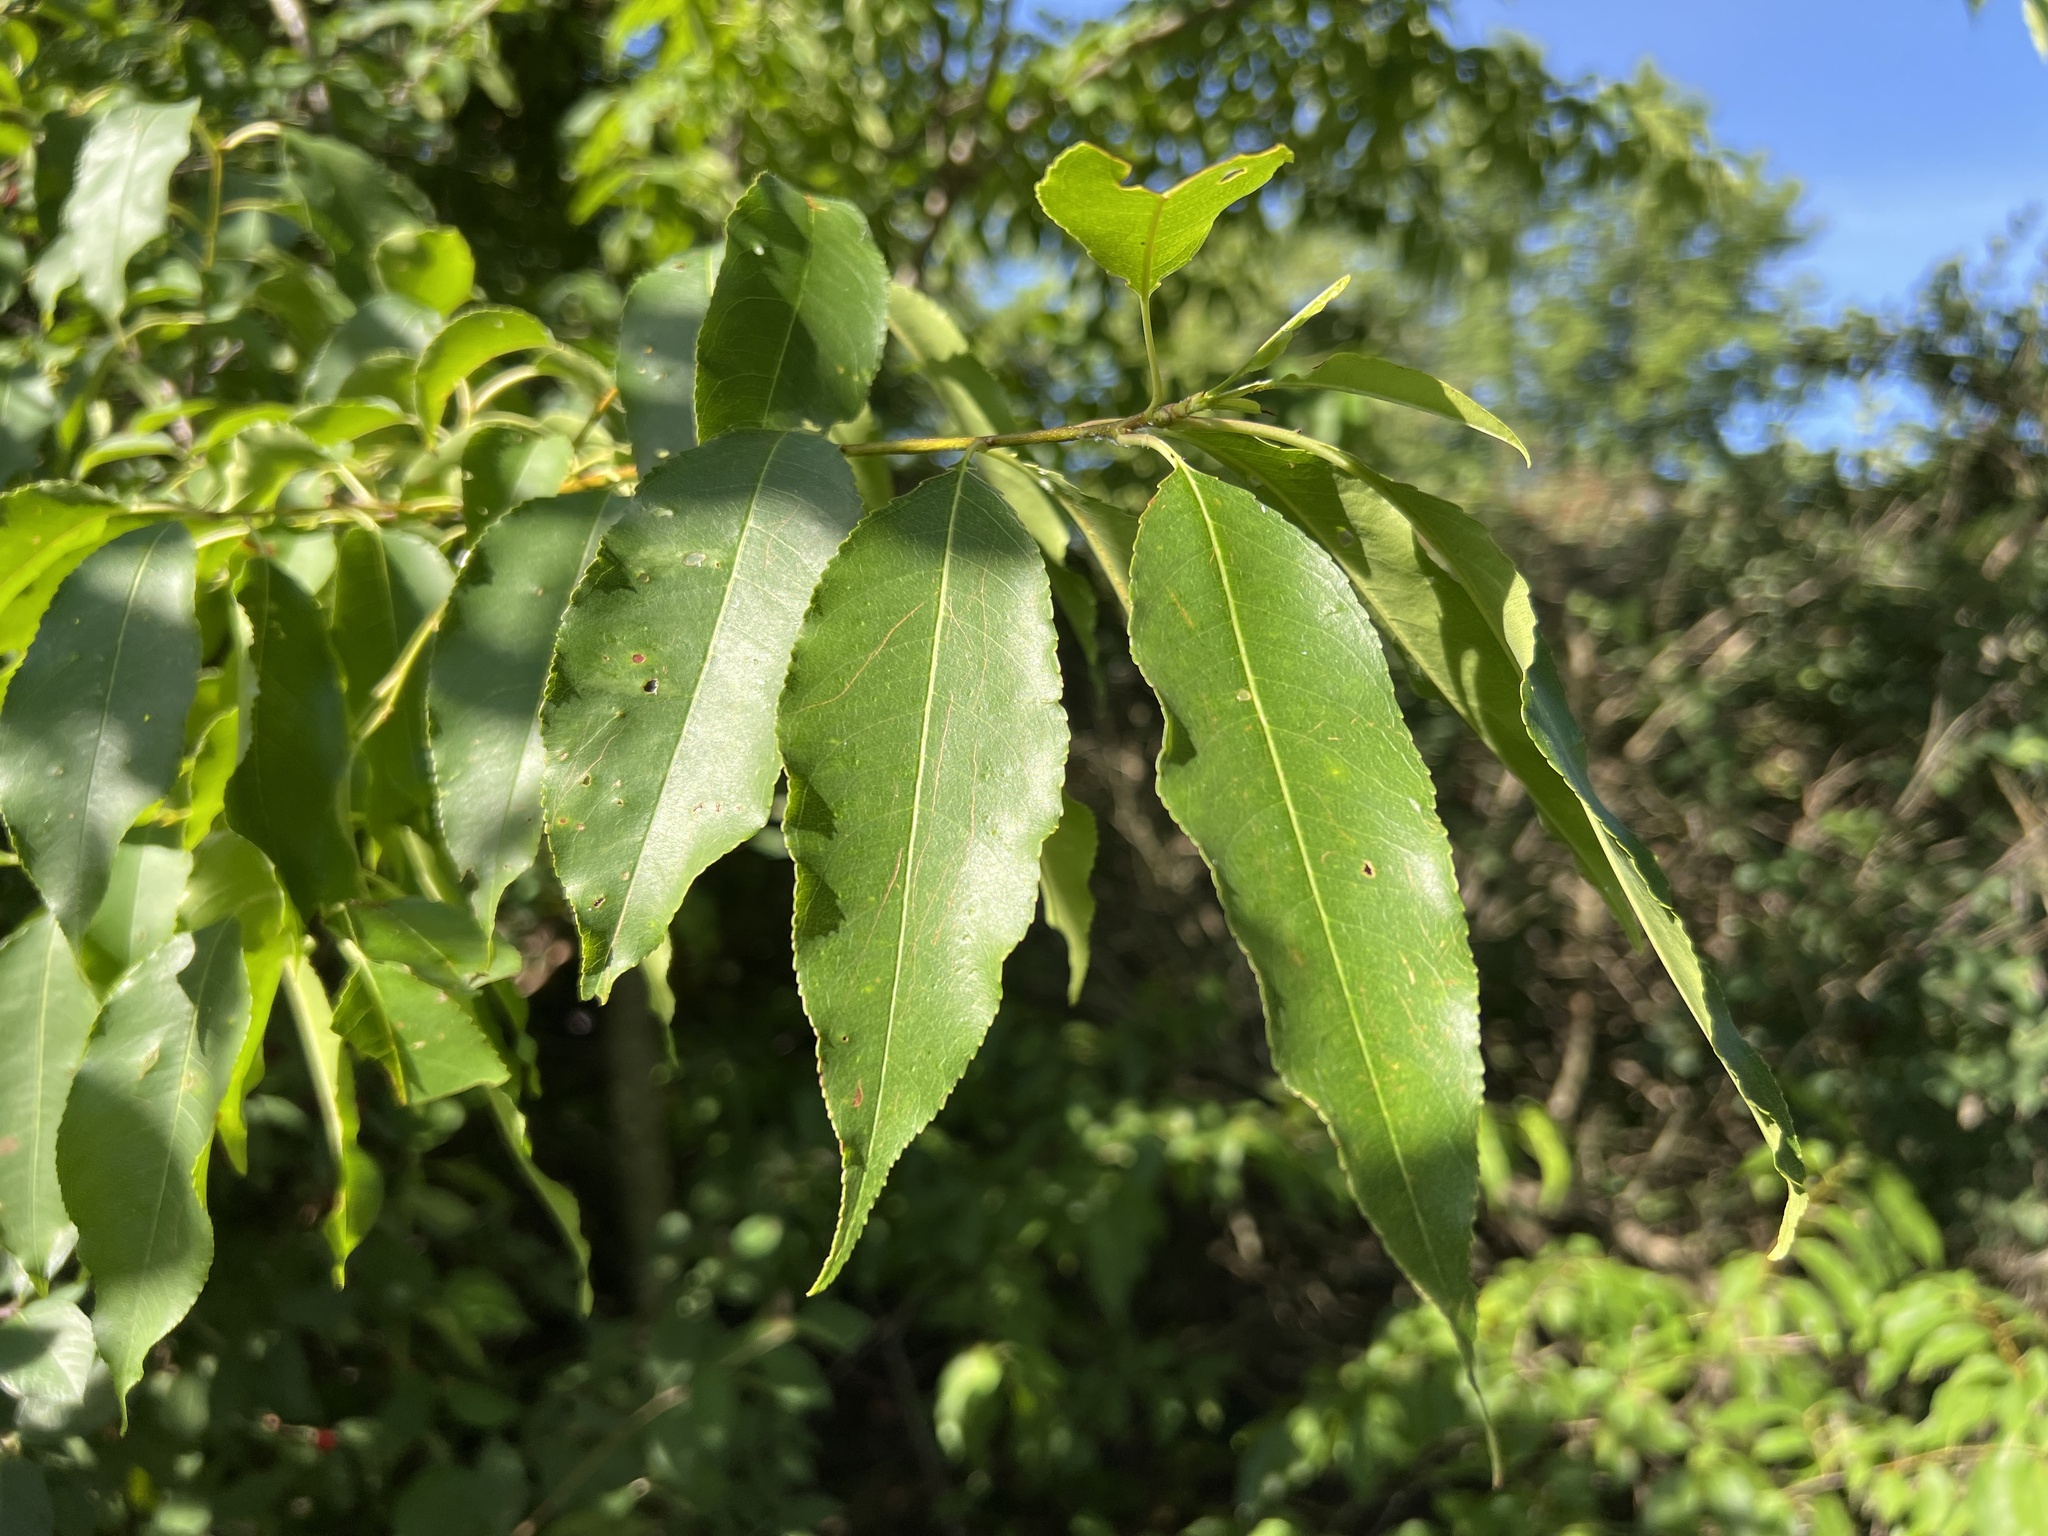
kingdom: Plantae
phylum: Tracheophyta
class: Magnoliopsida
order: Rosales
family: Rosaceae
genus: Prunus
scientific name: Prunus pensylvanica
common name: Pin cherry
